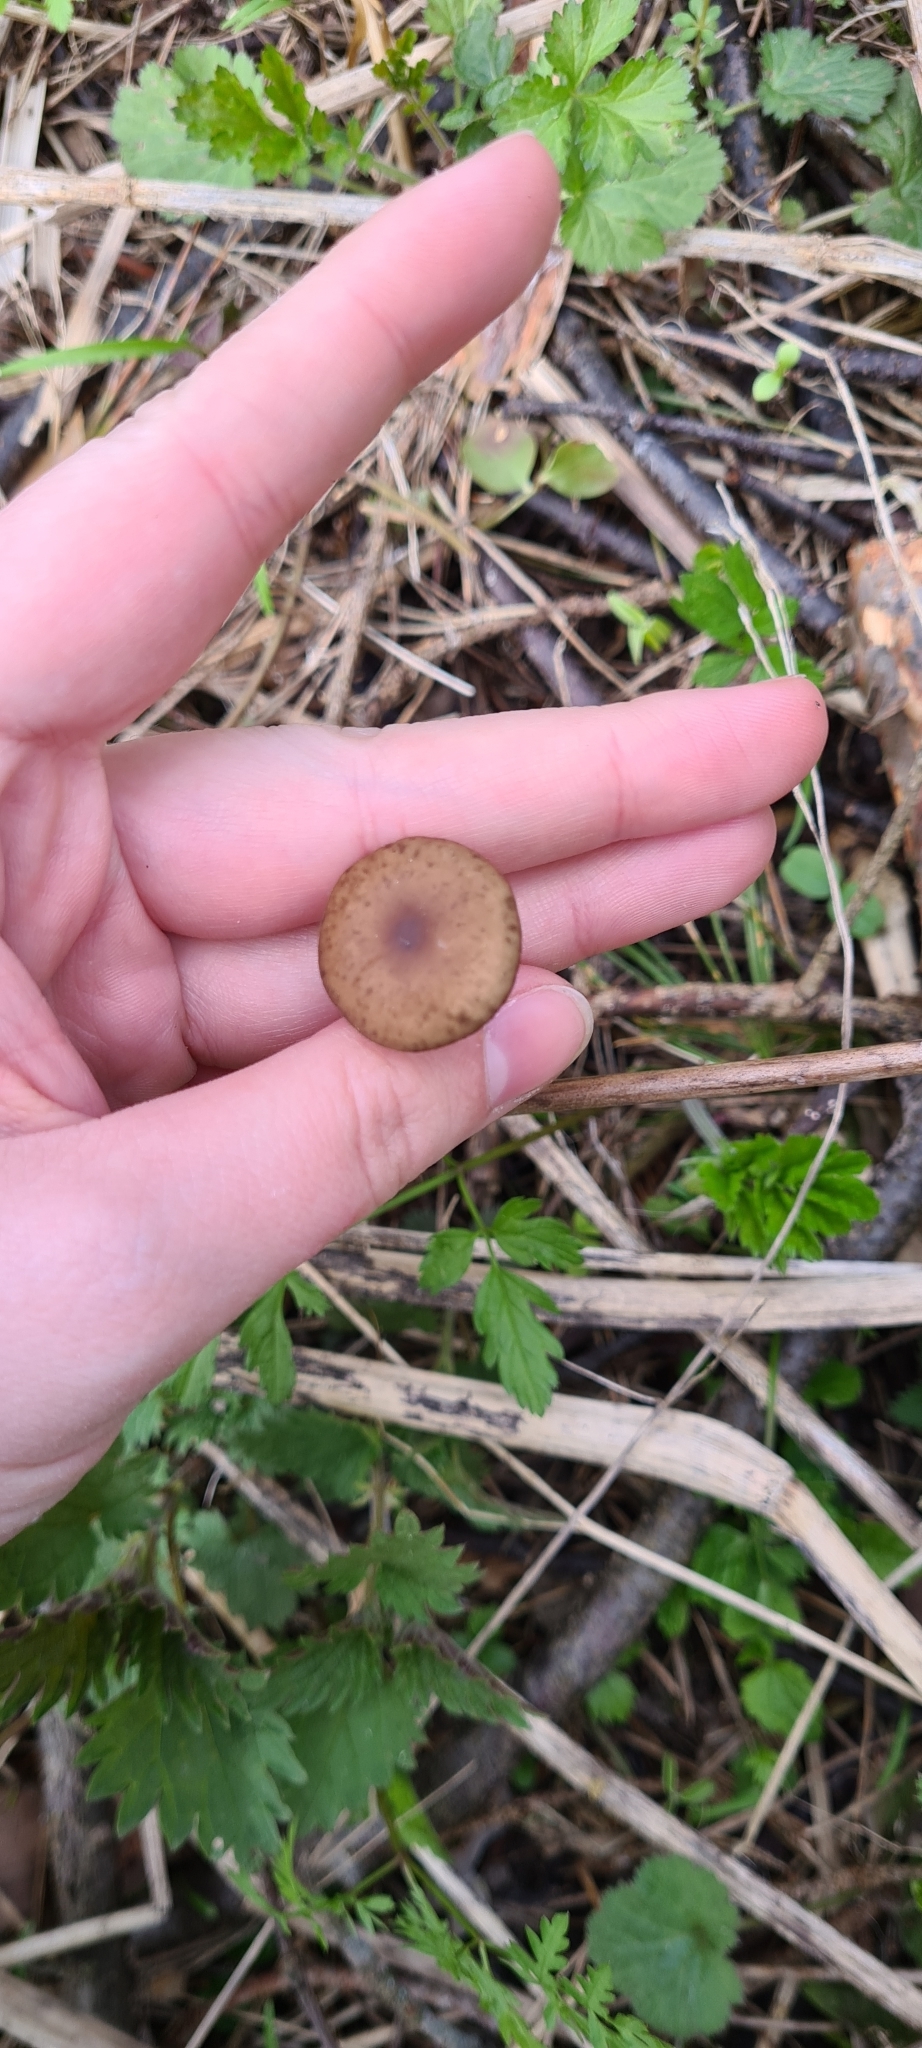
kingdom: Fungi
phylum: Basidiomycota
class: Agaricomycetes
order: Agaricales
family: Physalacriaceae
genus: Strobilurus
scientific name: Strobilurus esculentus
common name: Sprucecone cap
